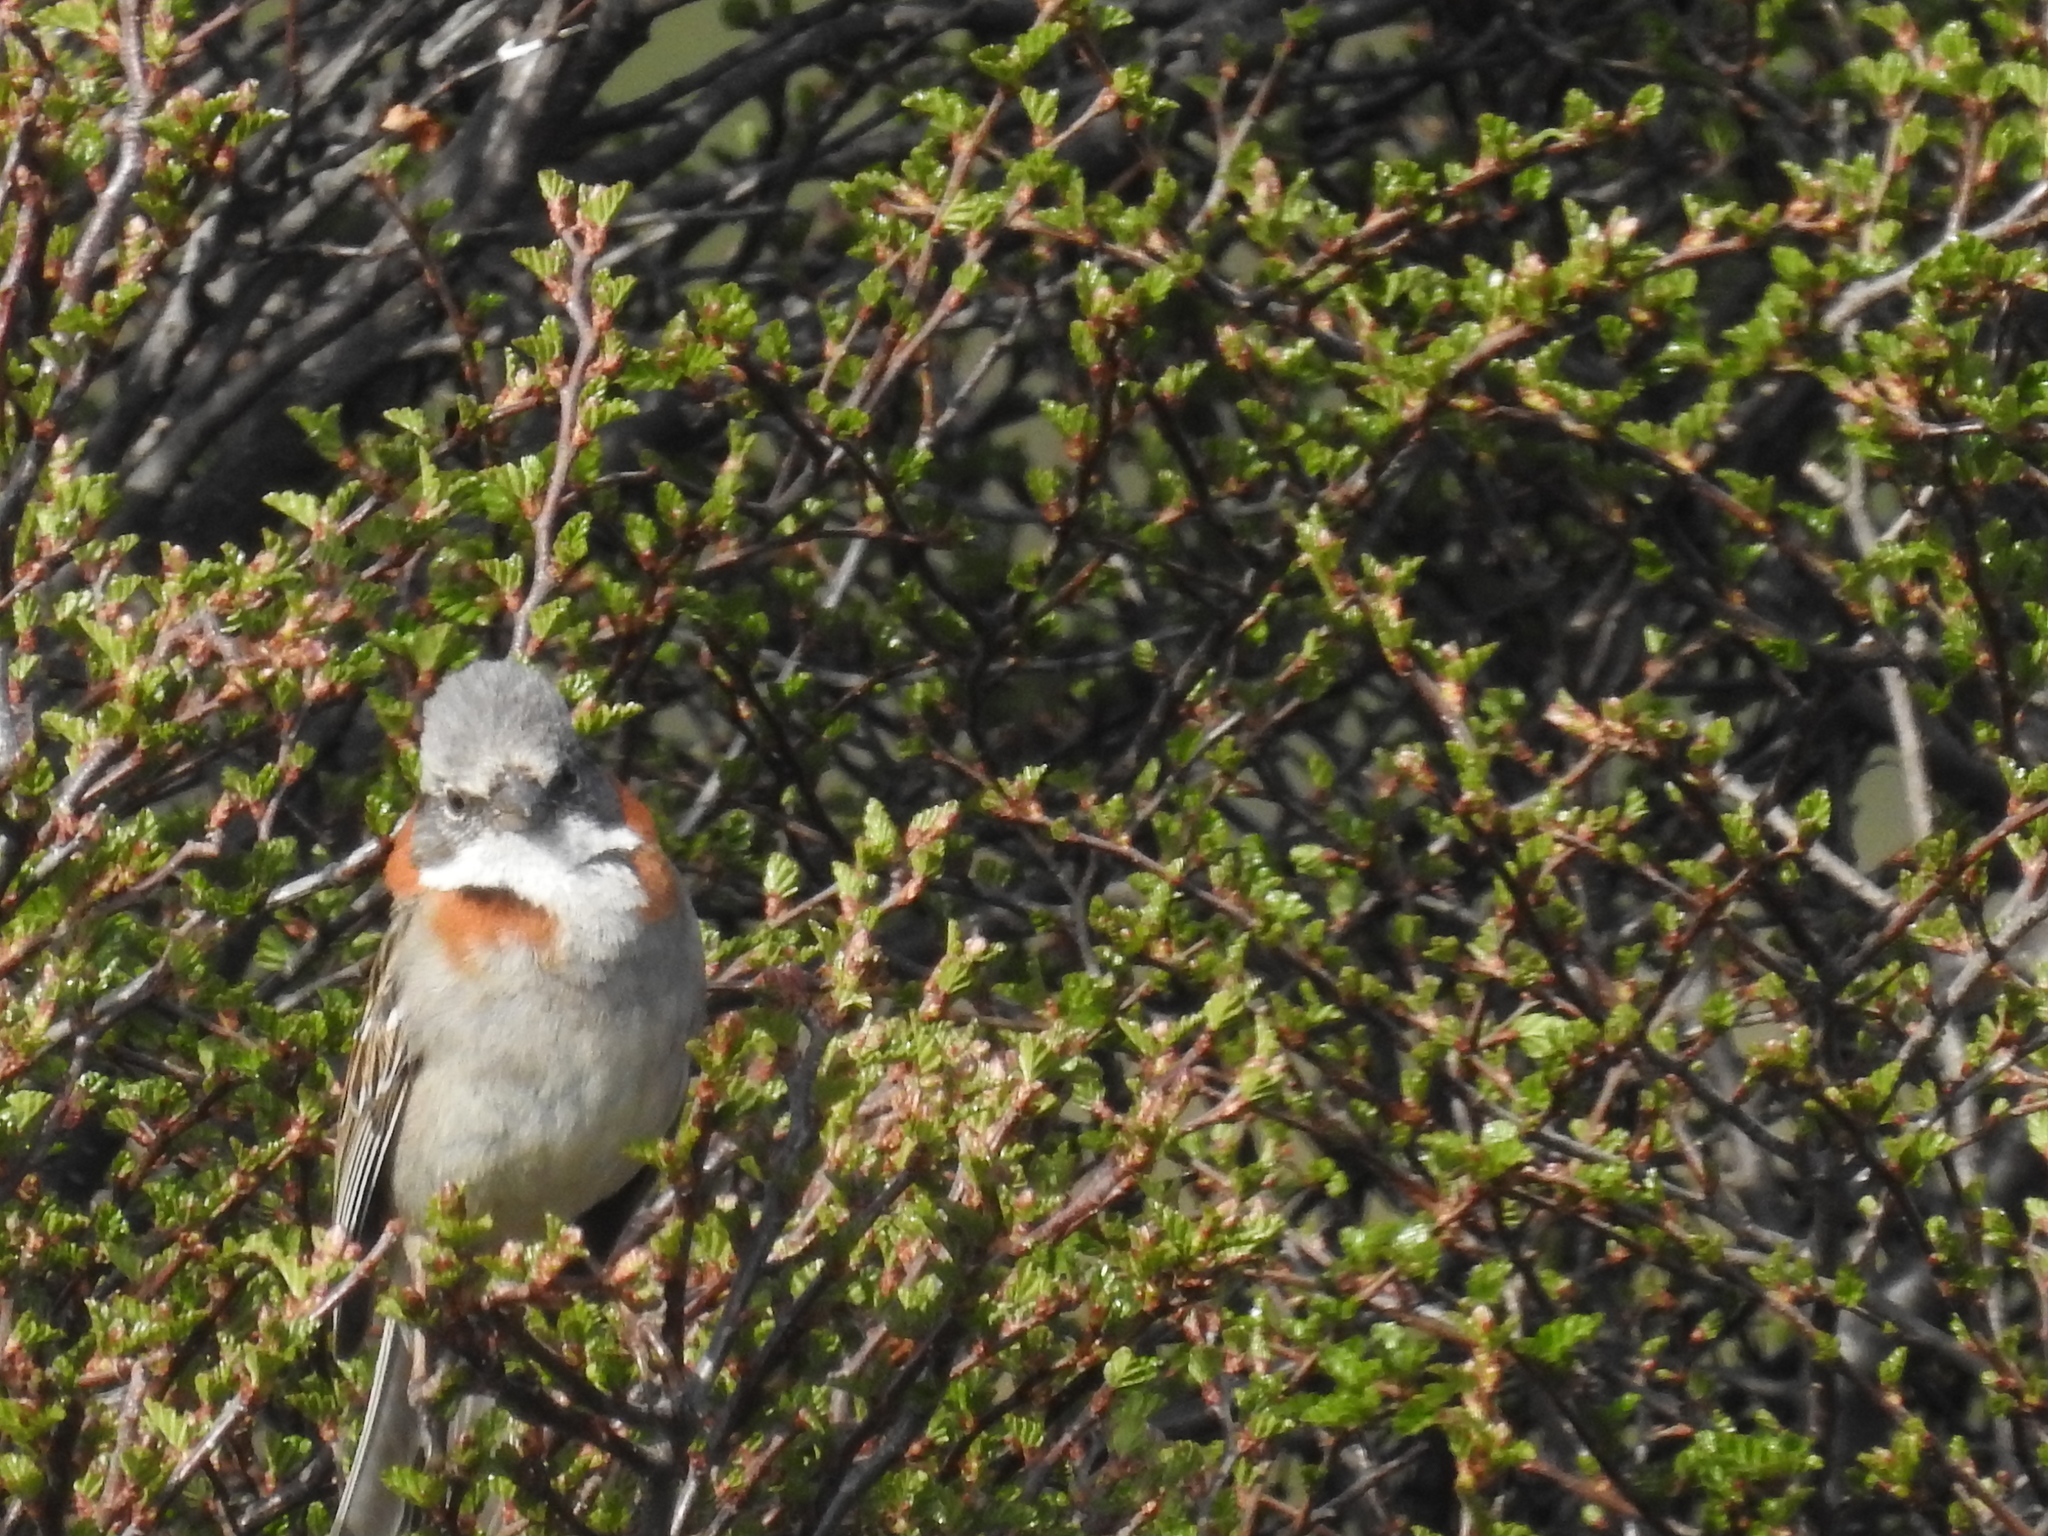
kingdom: Animalia
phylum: Chordata
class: Aves
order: Passeriformes
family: Passerellidae
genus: Zonotrichia
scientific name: Zonotrichia capensis
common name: Rufous-collared sparrow
